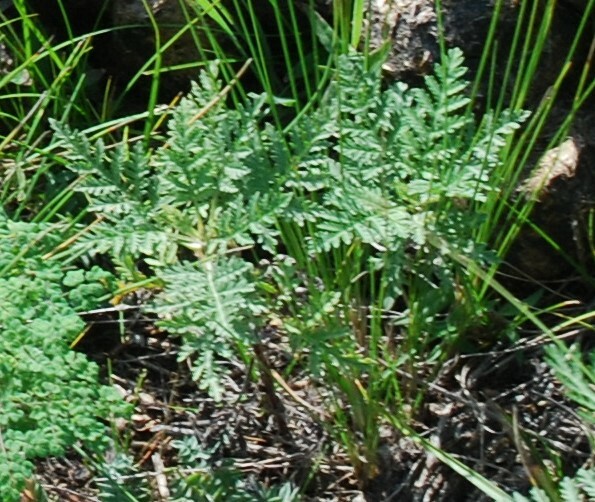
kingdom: Plantae
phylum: Tracheophyta
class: Magnoliopsida
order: Asterales
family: Asteraceae
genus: Artemisia
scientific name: Artemisia gmelinii
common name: Gmelin's wormwood
